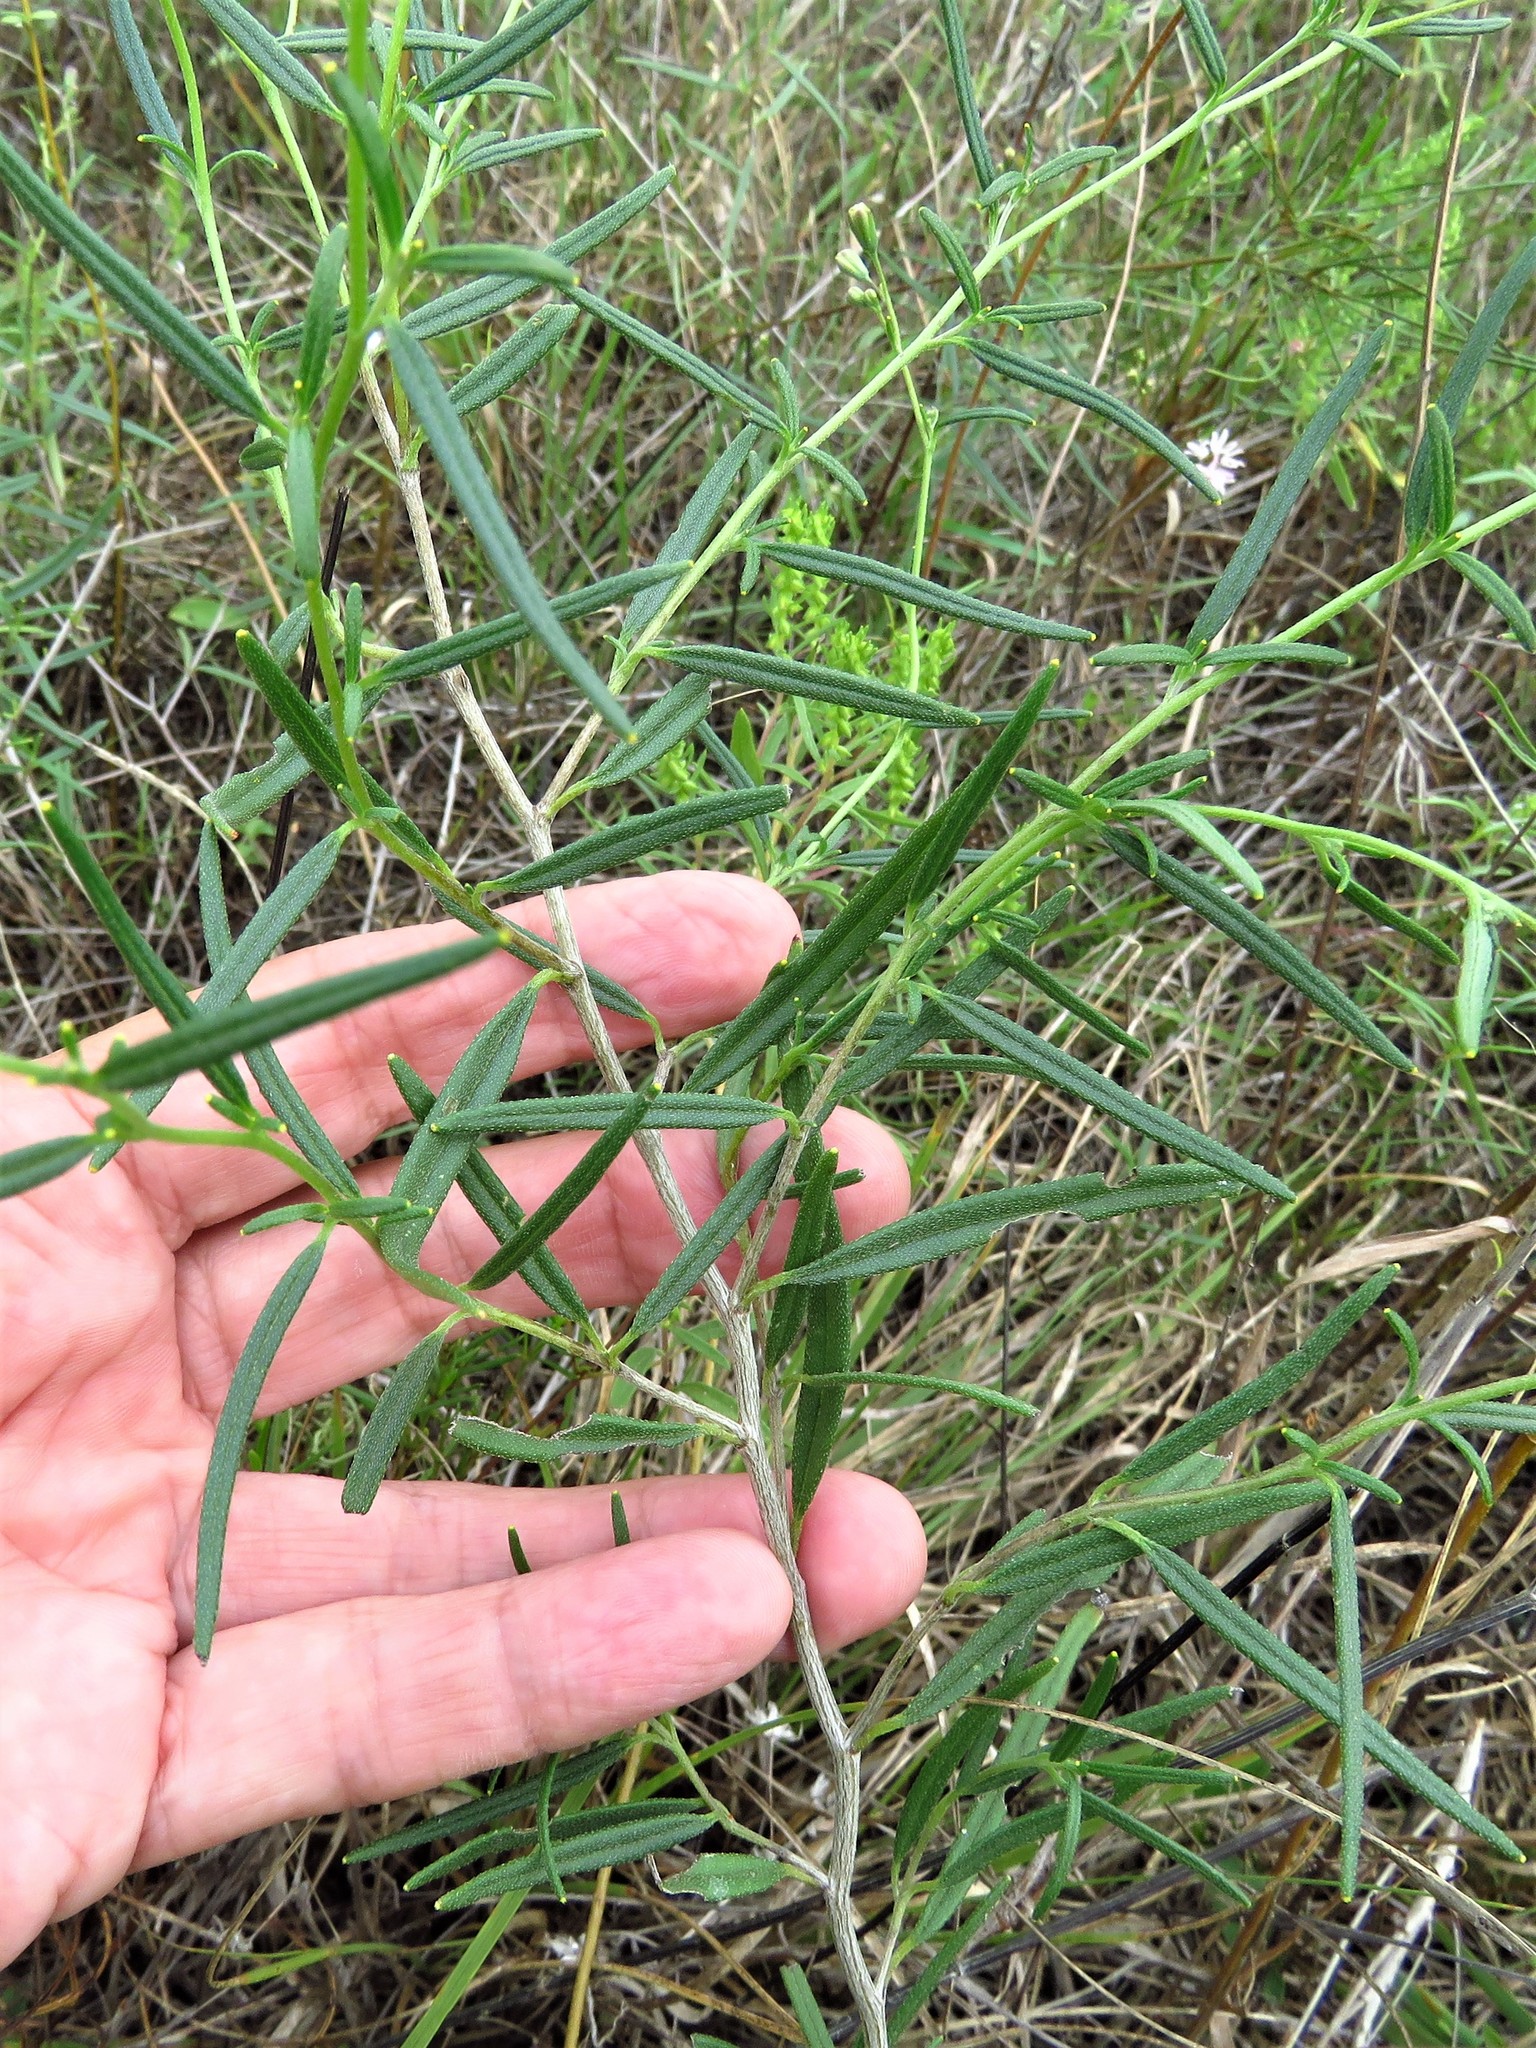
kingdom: Plantae
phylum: Tracheophyta
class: Magnoliopsida
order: Asterales
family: Asteraceae
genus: Palafoxia
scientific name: Palafoxia callosa
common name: Small palafox
